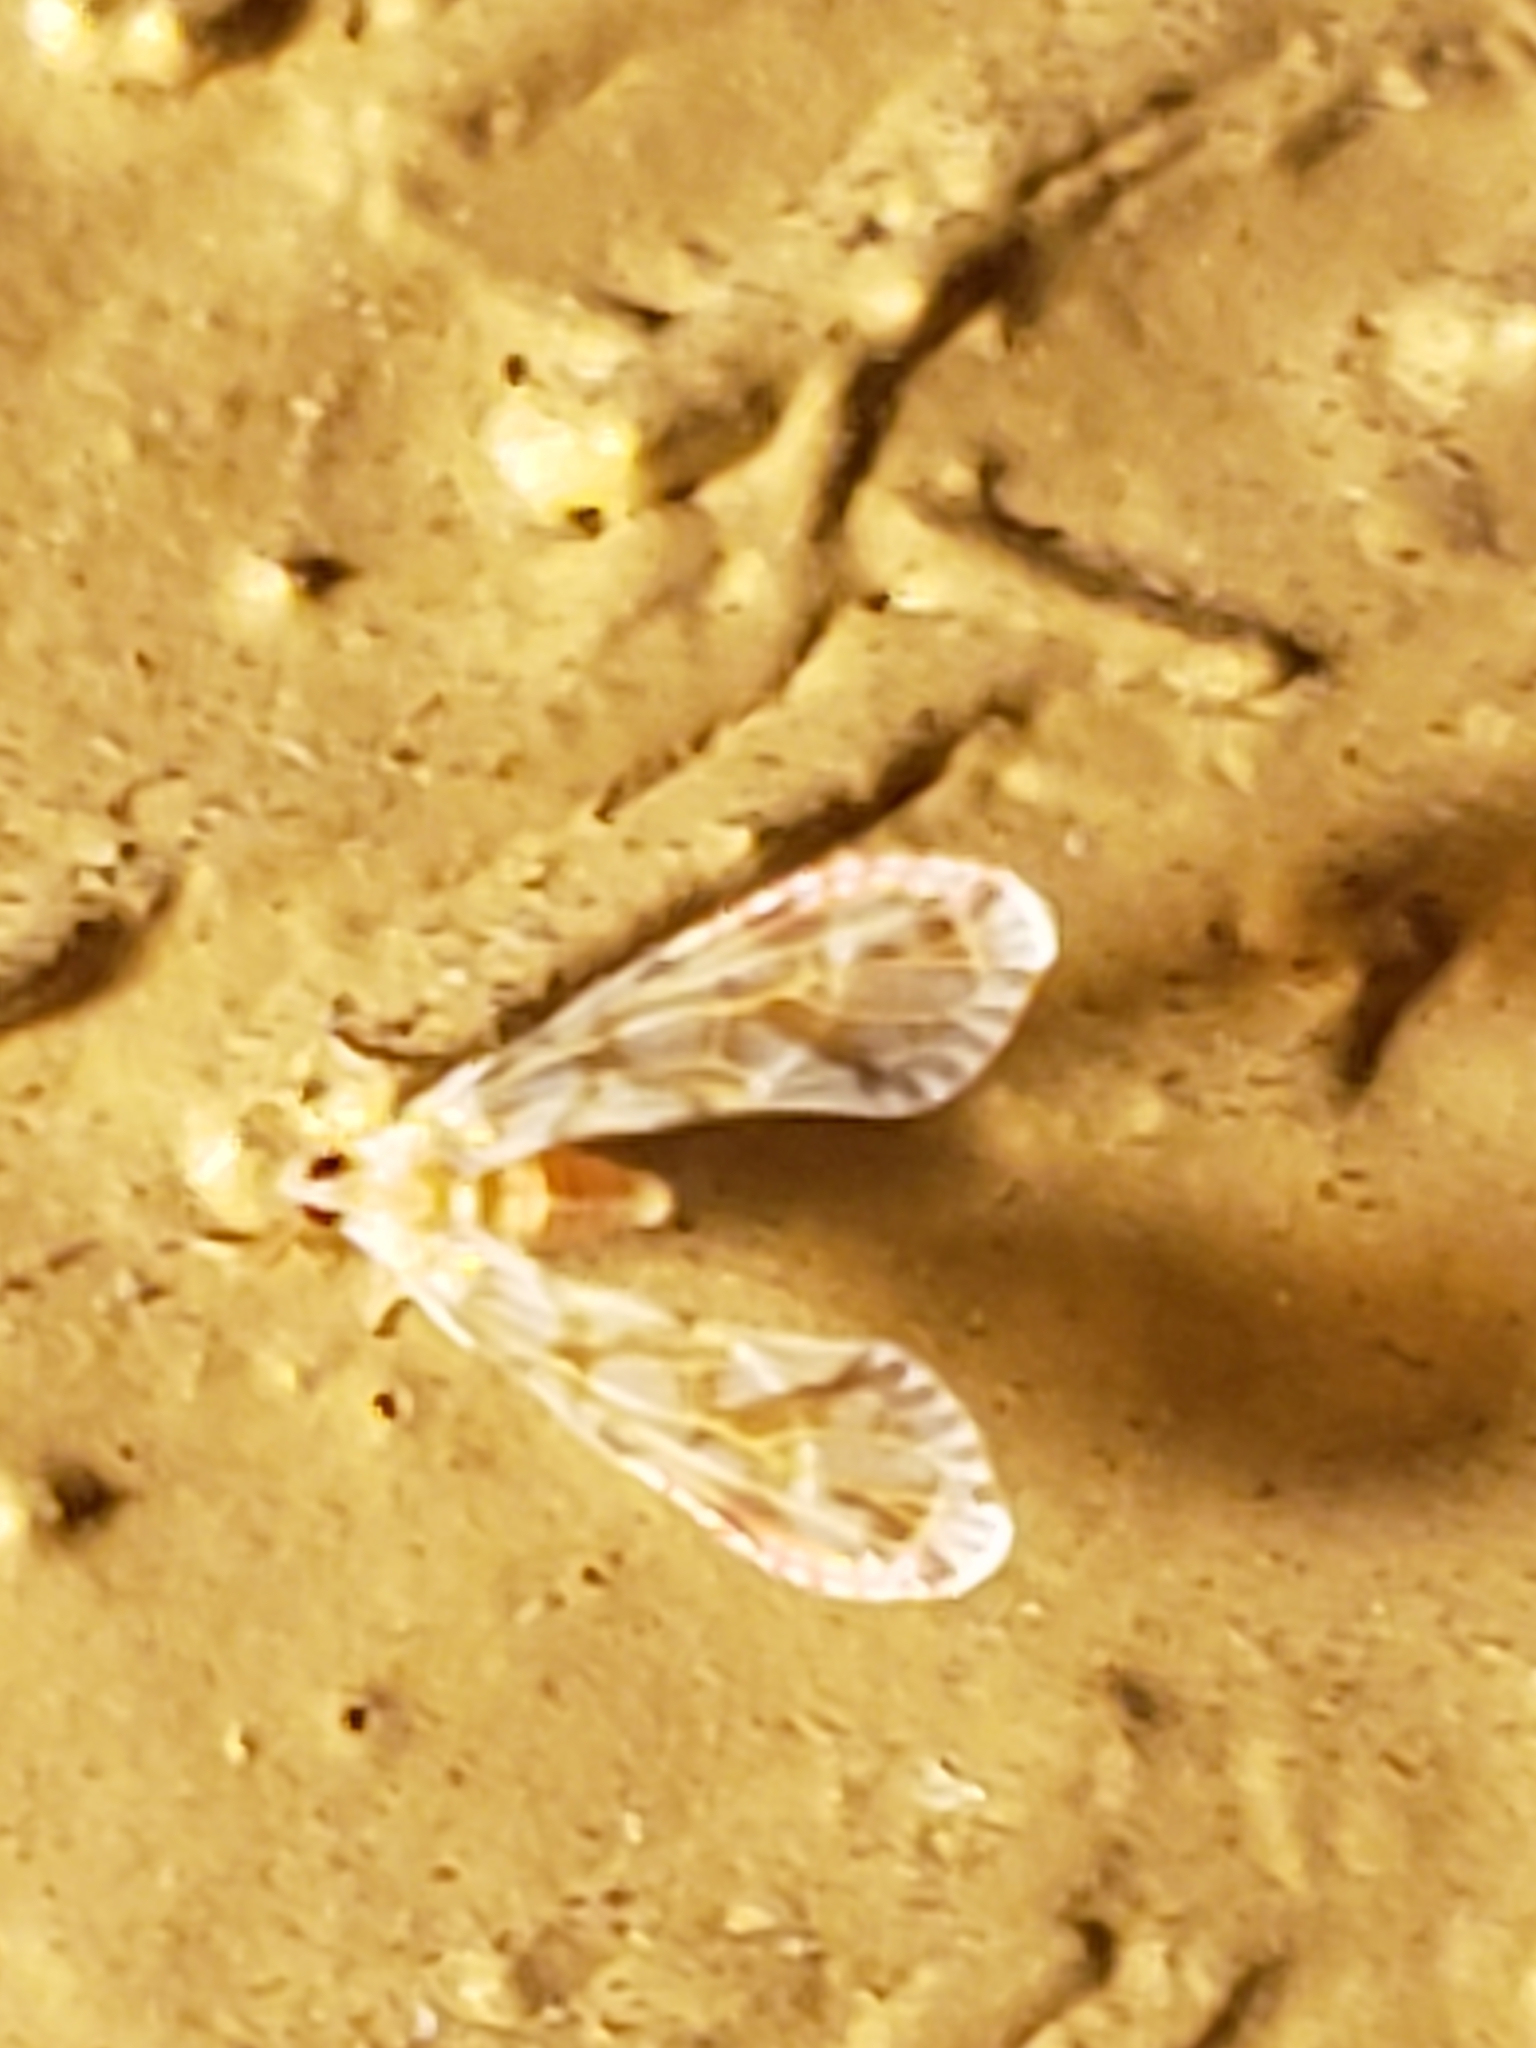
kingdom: Animalia
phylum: Arthropoda
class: Insecta
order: Hemiptera
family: Derbidae
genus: Anotia
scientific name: Anotia kirkaldyi
